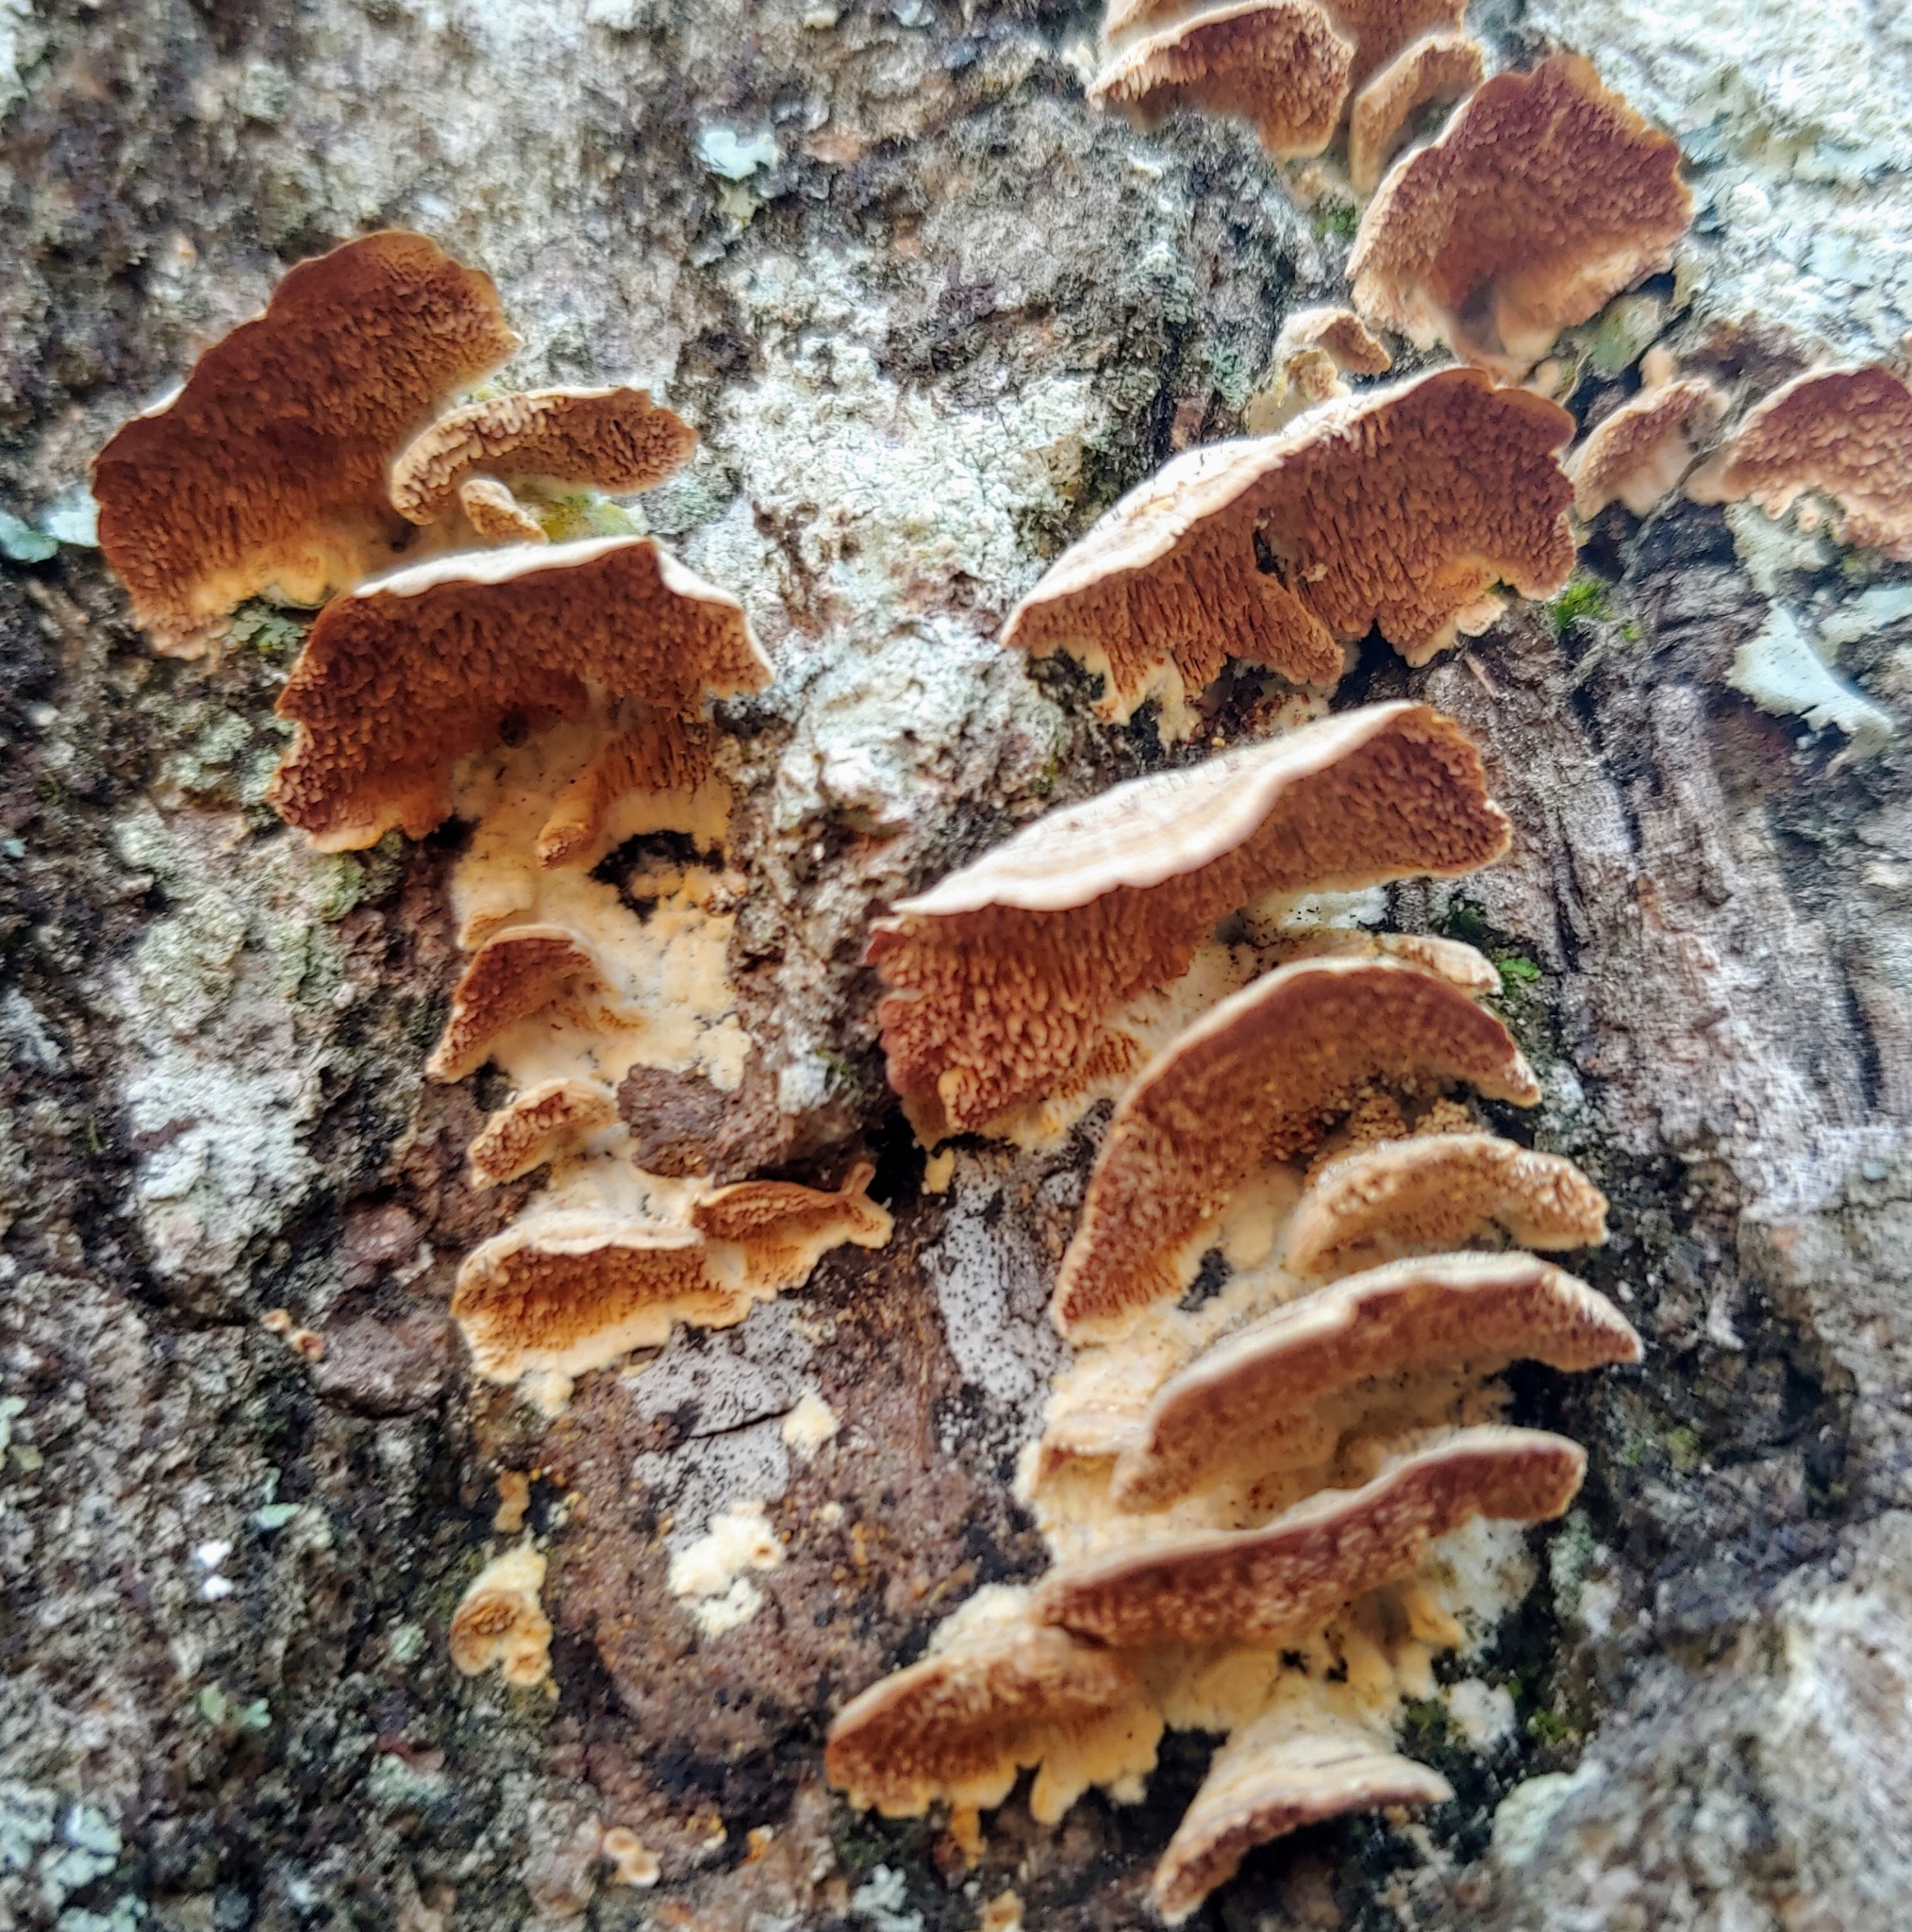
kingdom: Fungi
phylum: Basidiomycota
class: Agaricomycetes
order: Hymenochaetales
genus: Trichaptum
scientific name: Trichaptum biforme
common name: Violet-toothed polypore
